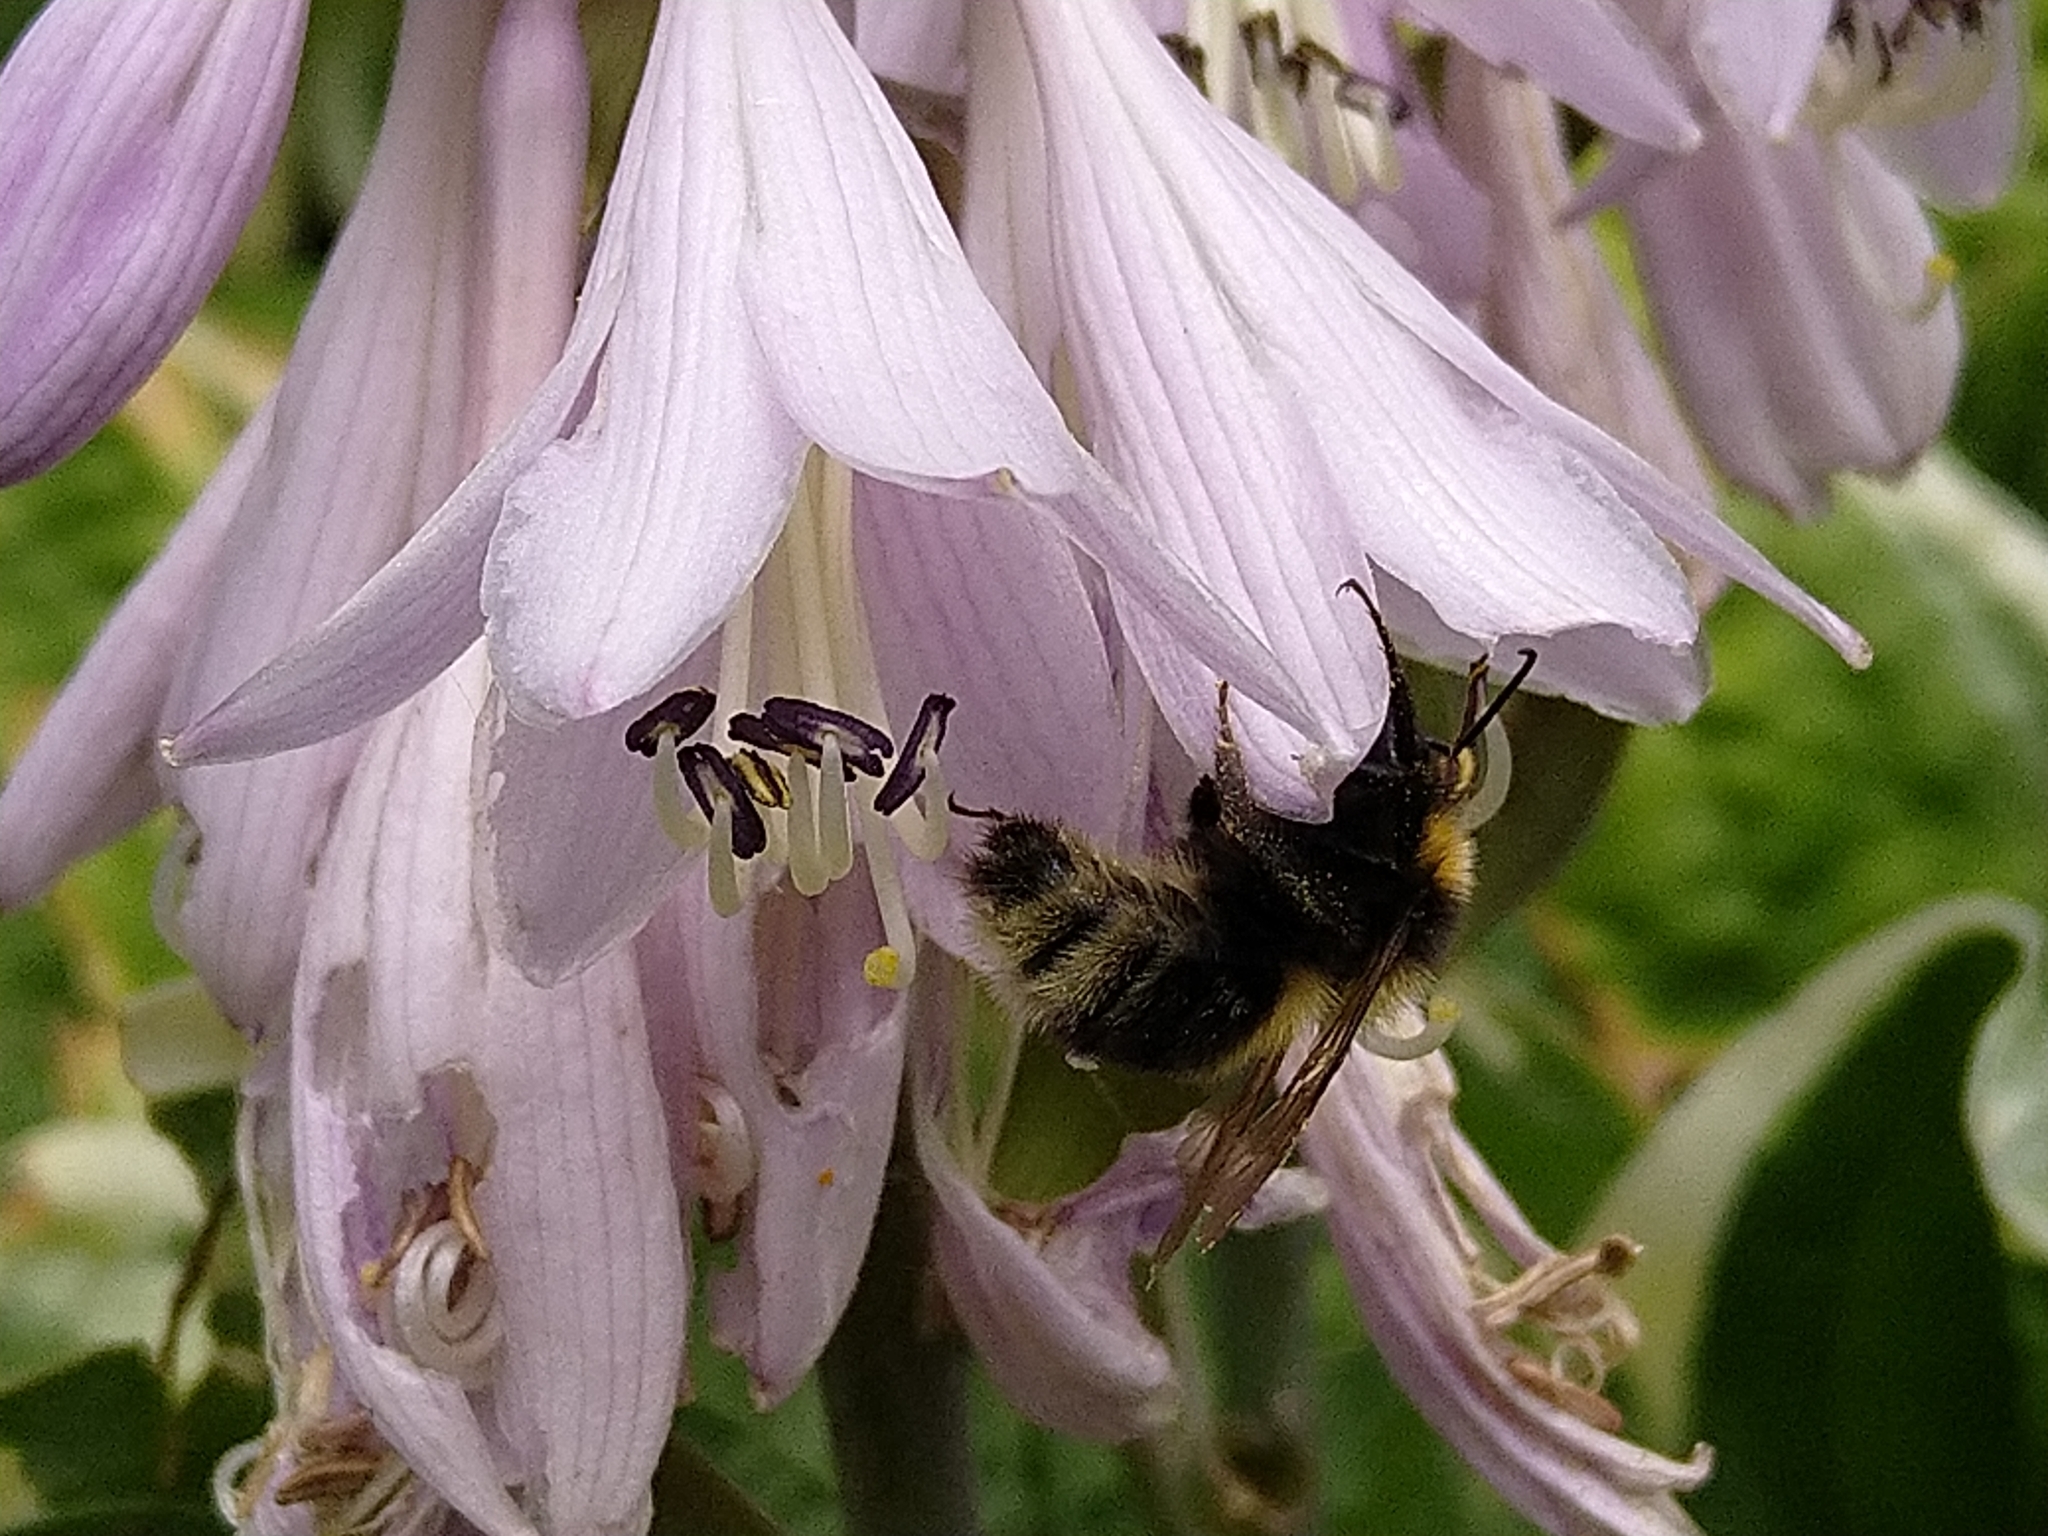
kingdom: Animalia
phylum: Arthropoda
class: Insecta
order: Hymenoptera
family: Apidae
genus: Bombus
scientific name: Bombus hortorum
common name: Garden bumblebee
